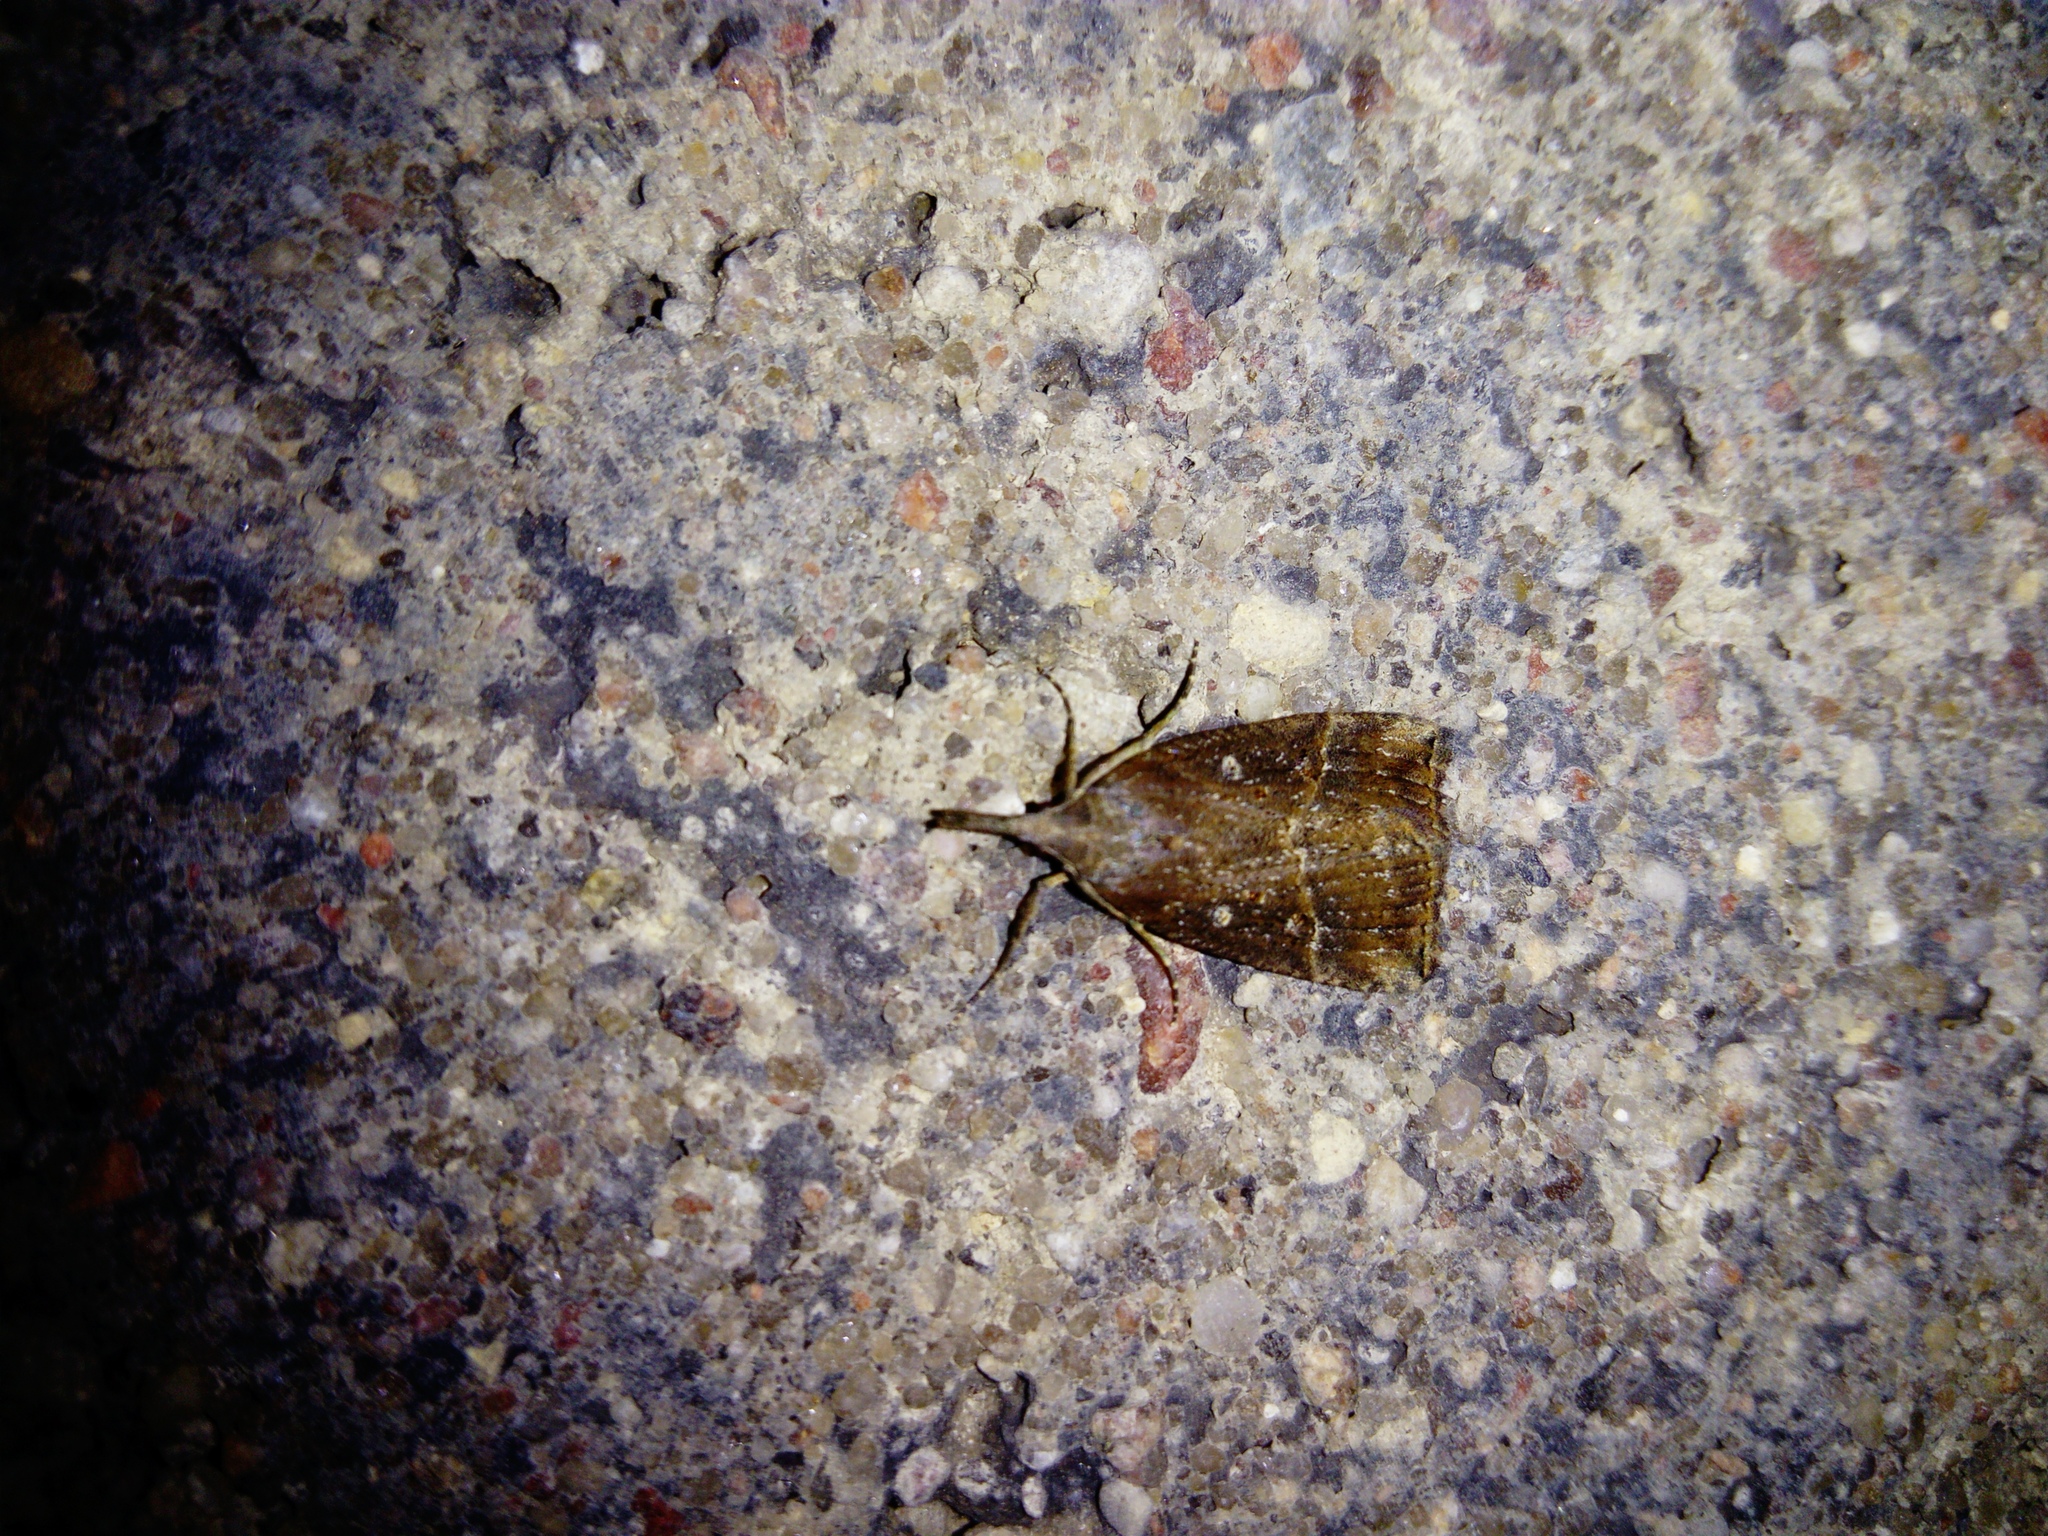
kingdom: Animalia
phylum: Arthropoda
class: Insecta
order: Lepidoptera
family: Erebidae
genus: Hypena
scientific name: Hypena rostralis
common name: Buttoned snout
